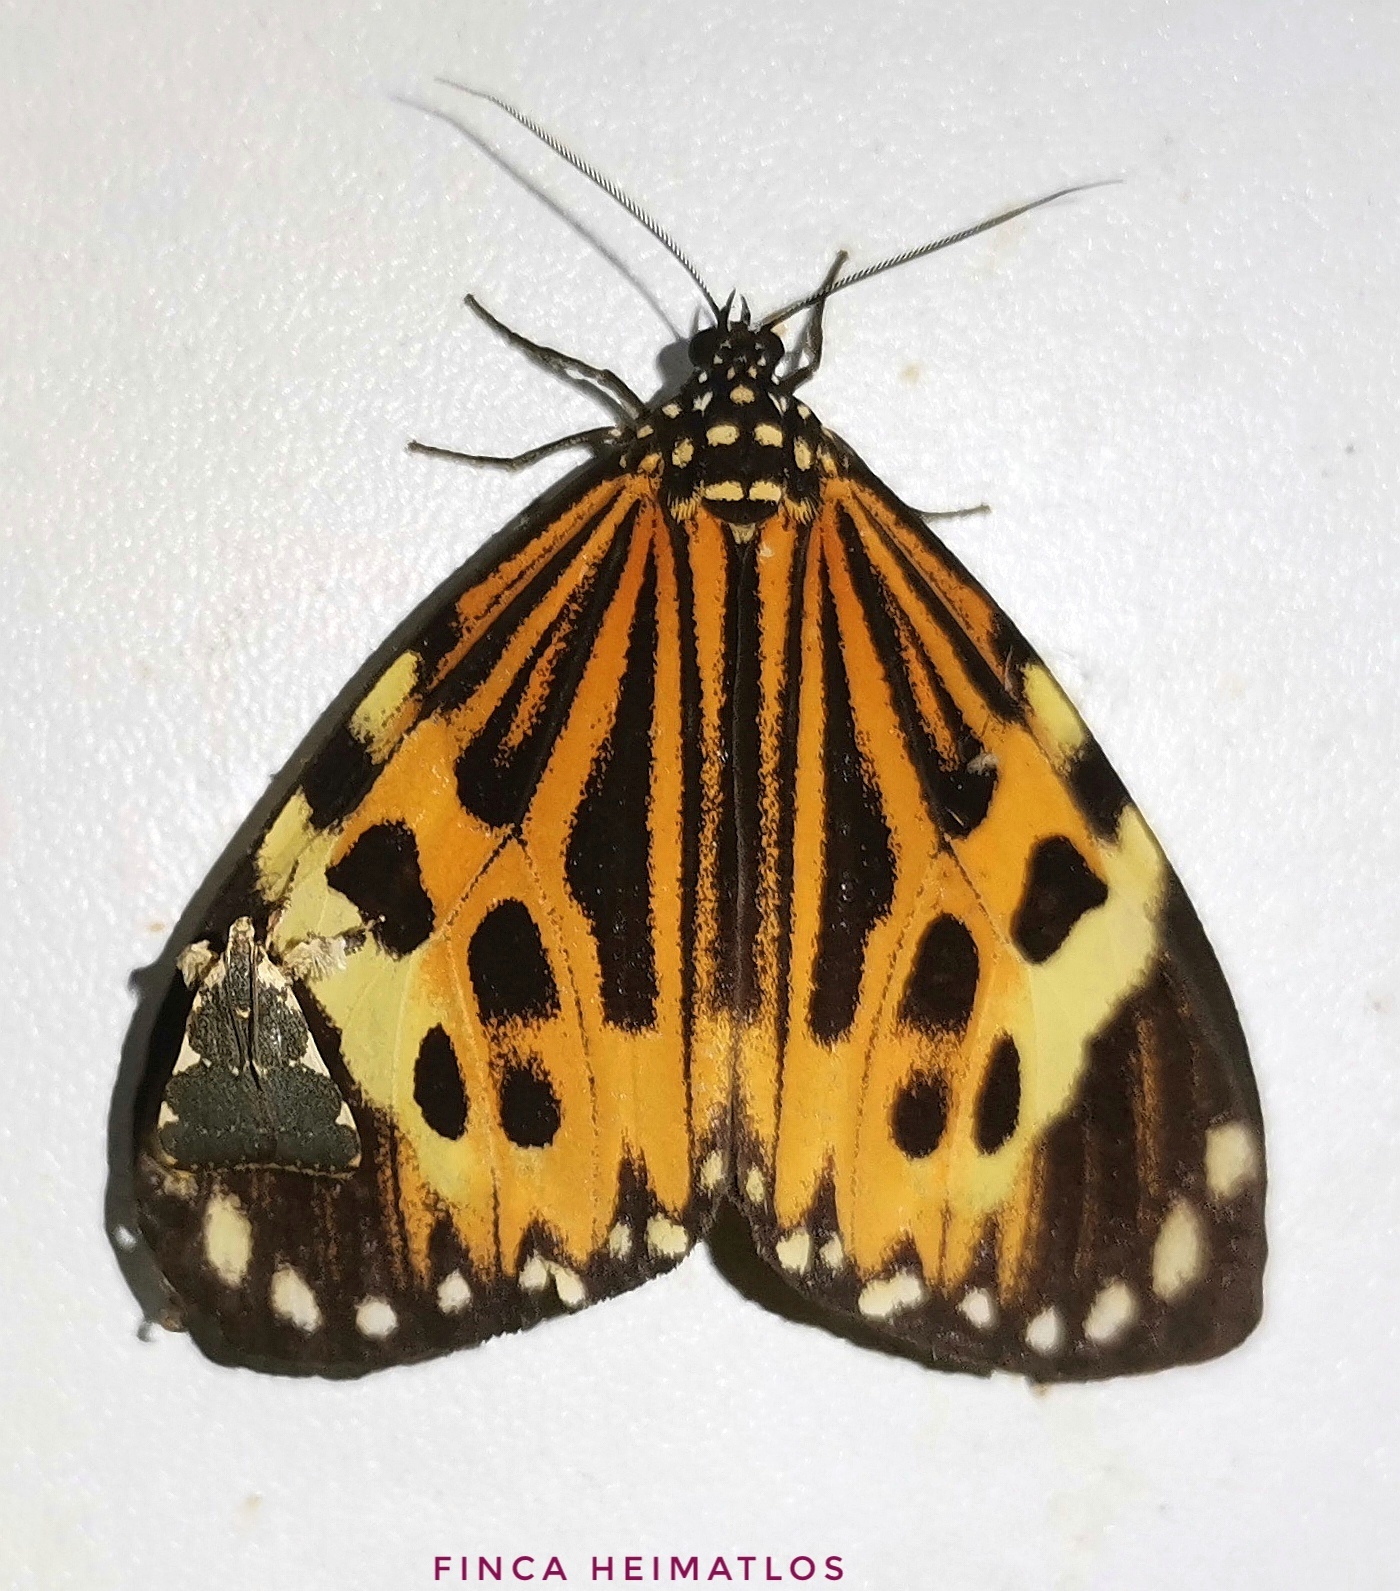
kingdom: Animalia
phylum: Arthropoda
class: Insecta
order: Lepidoptera
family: Erebidae
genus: Chetone
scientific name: Chetone histrio
